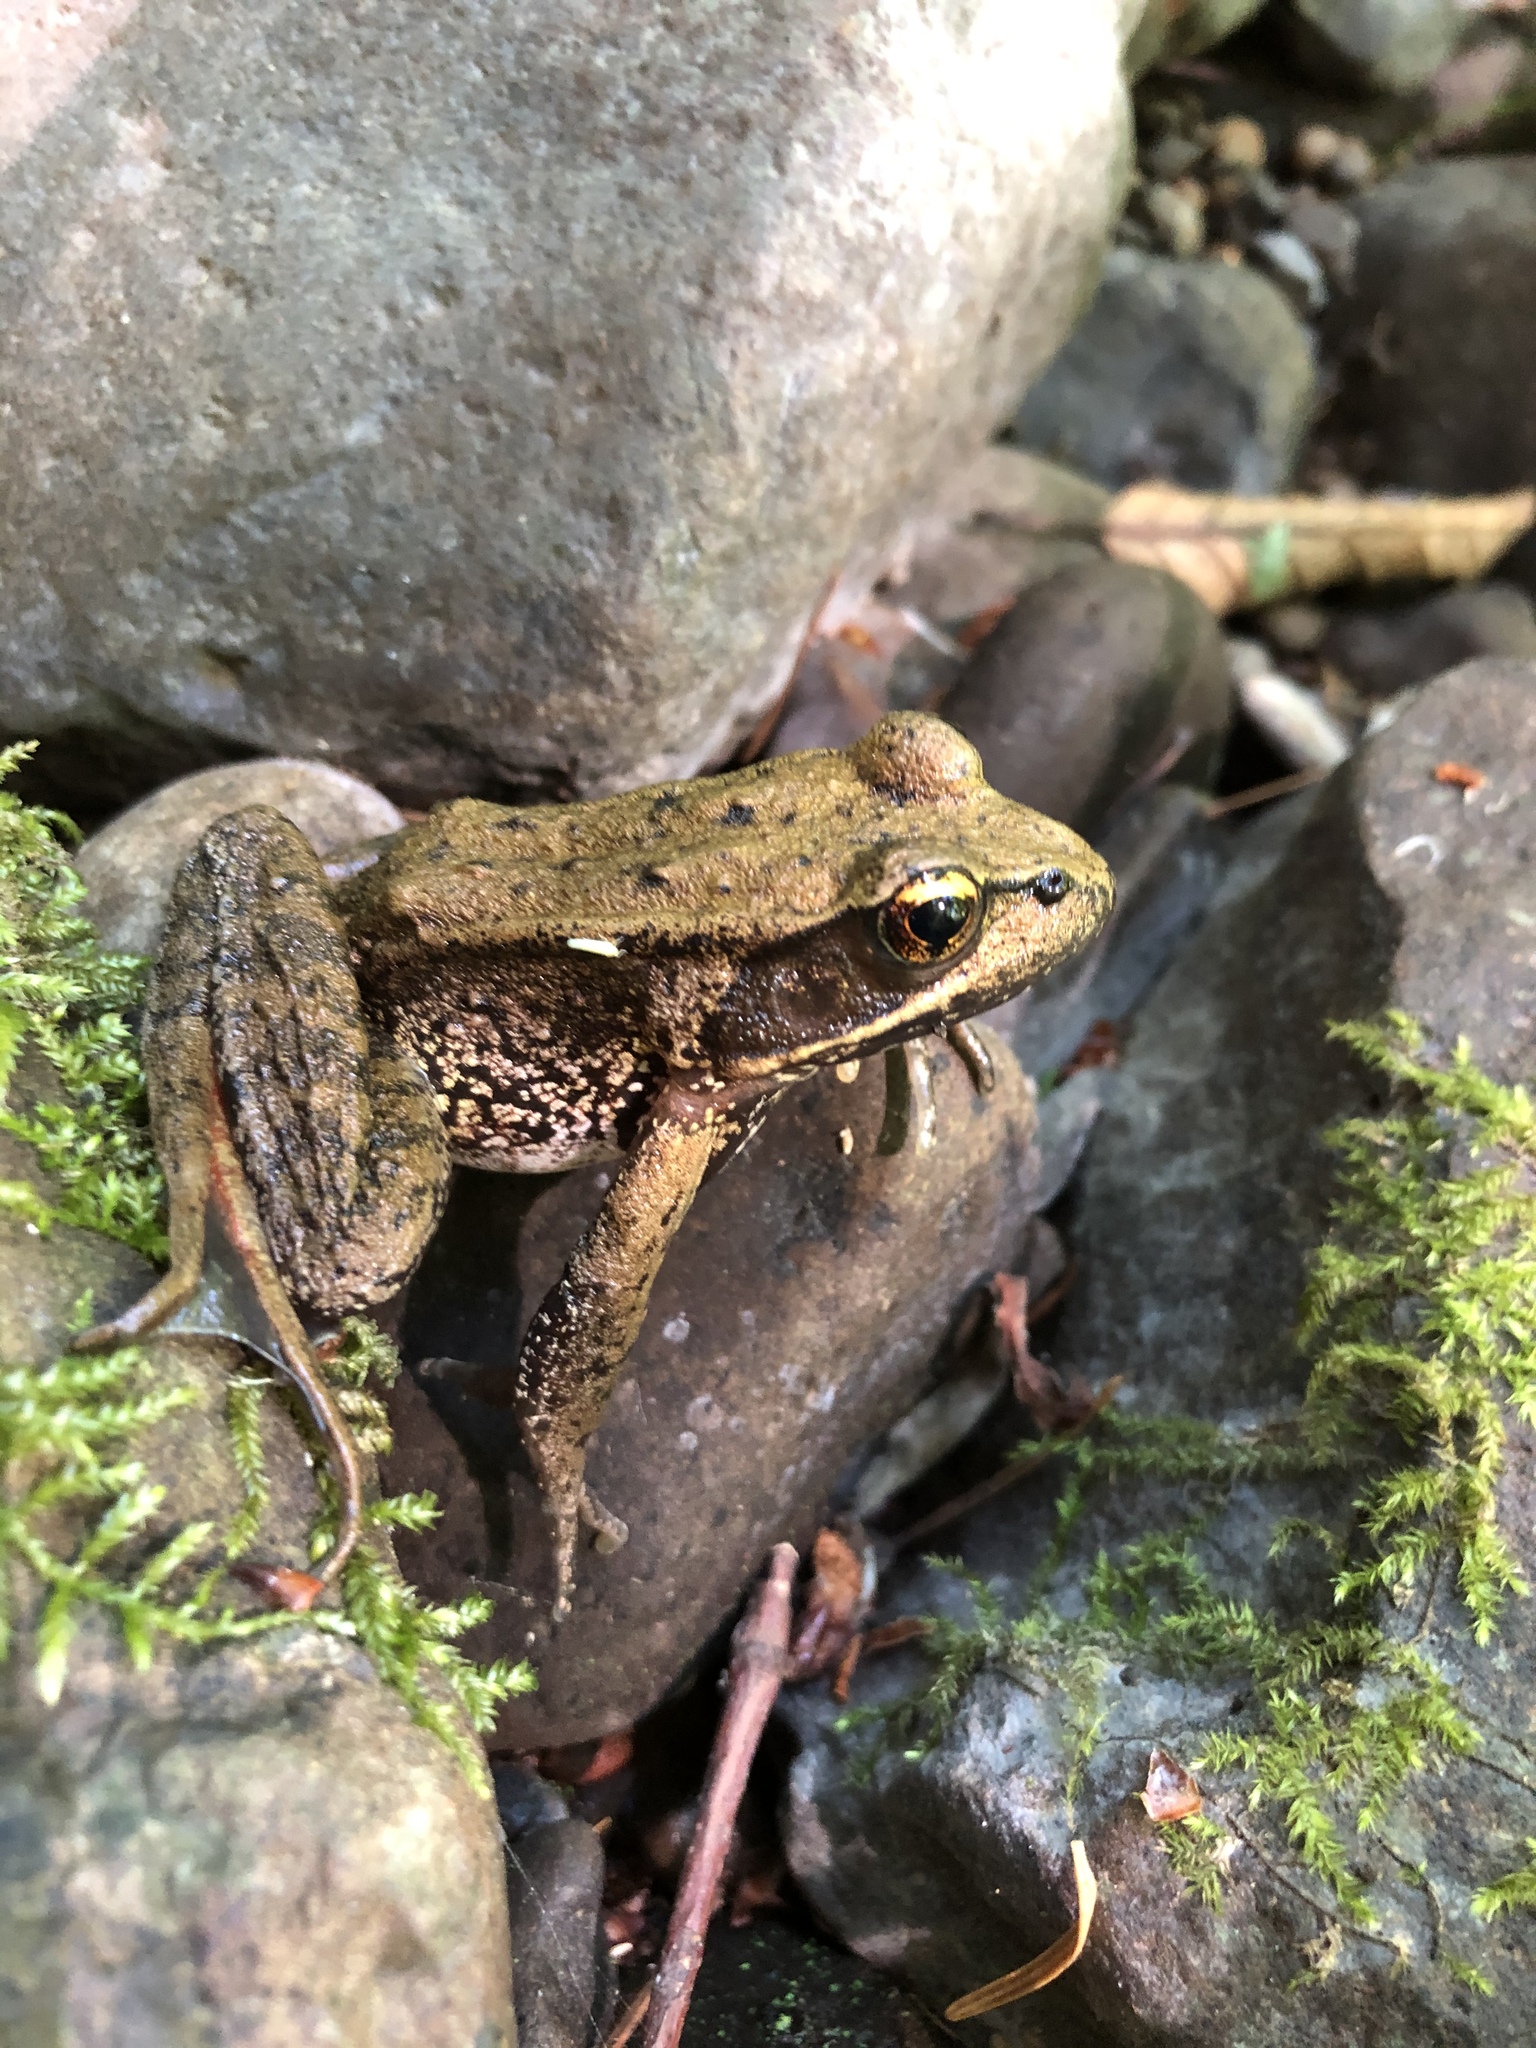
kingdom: Animalia
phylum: Chordata
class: Amphibia
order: Anura
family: Ranidae
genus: Rana
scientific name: Rana aurora
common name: Red-legged frog
